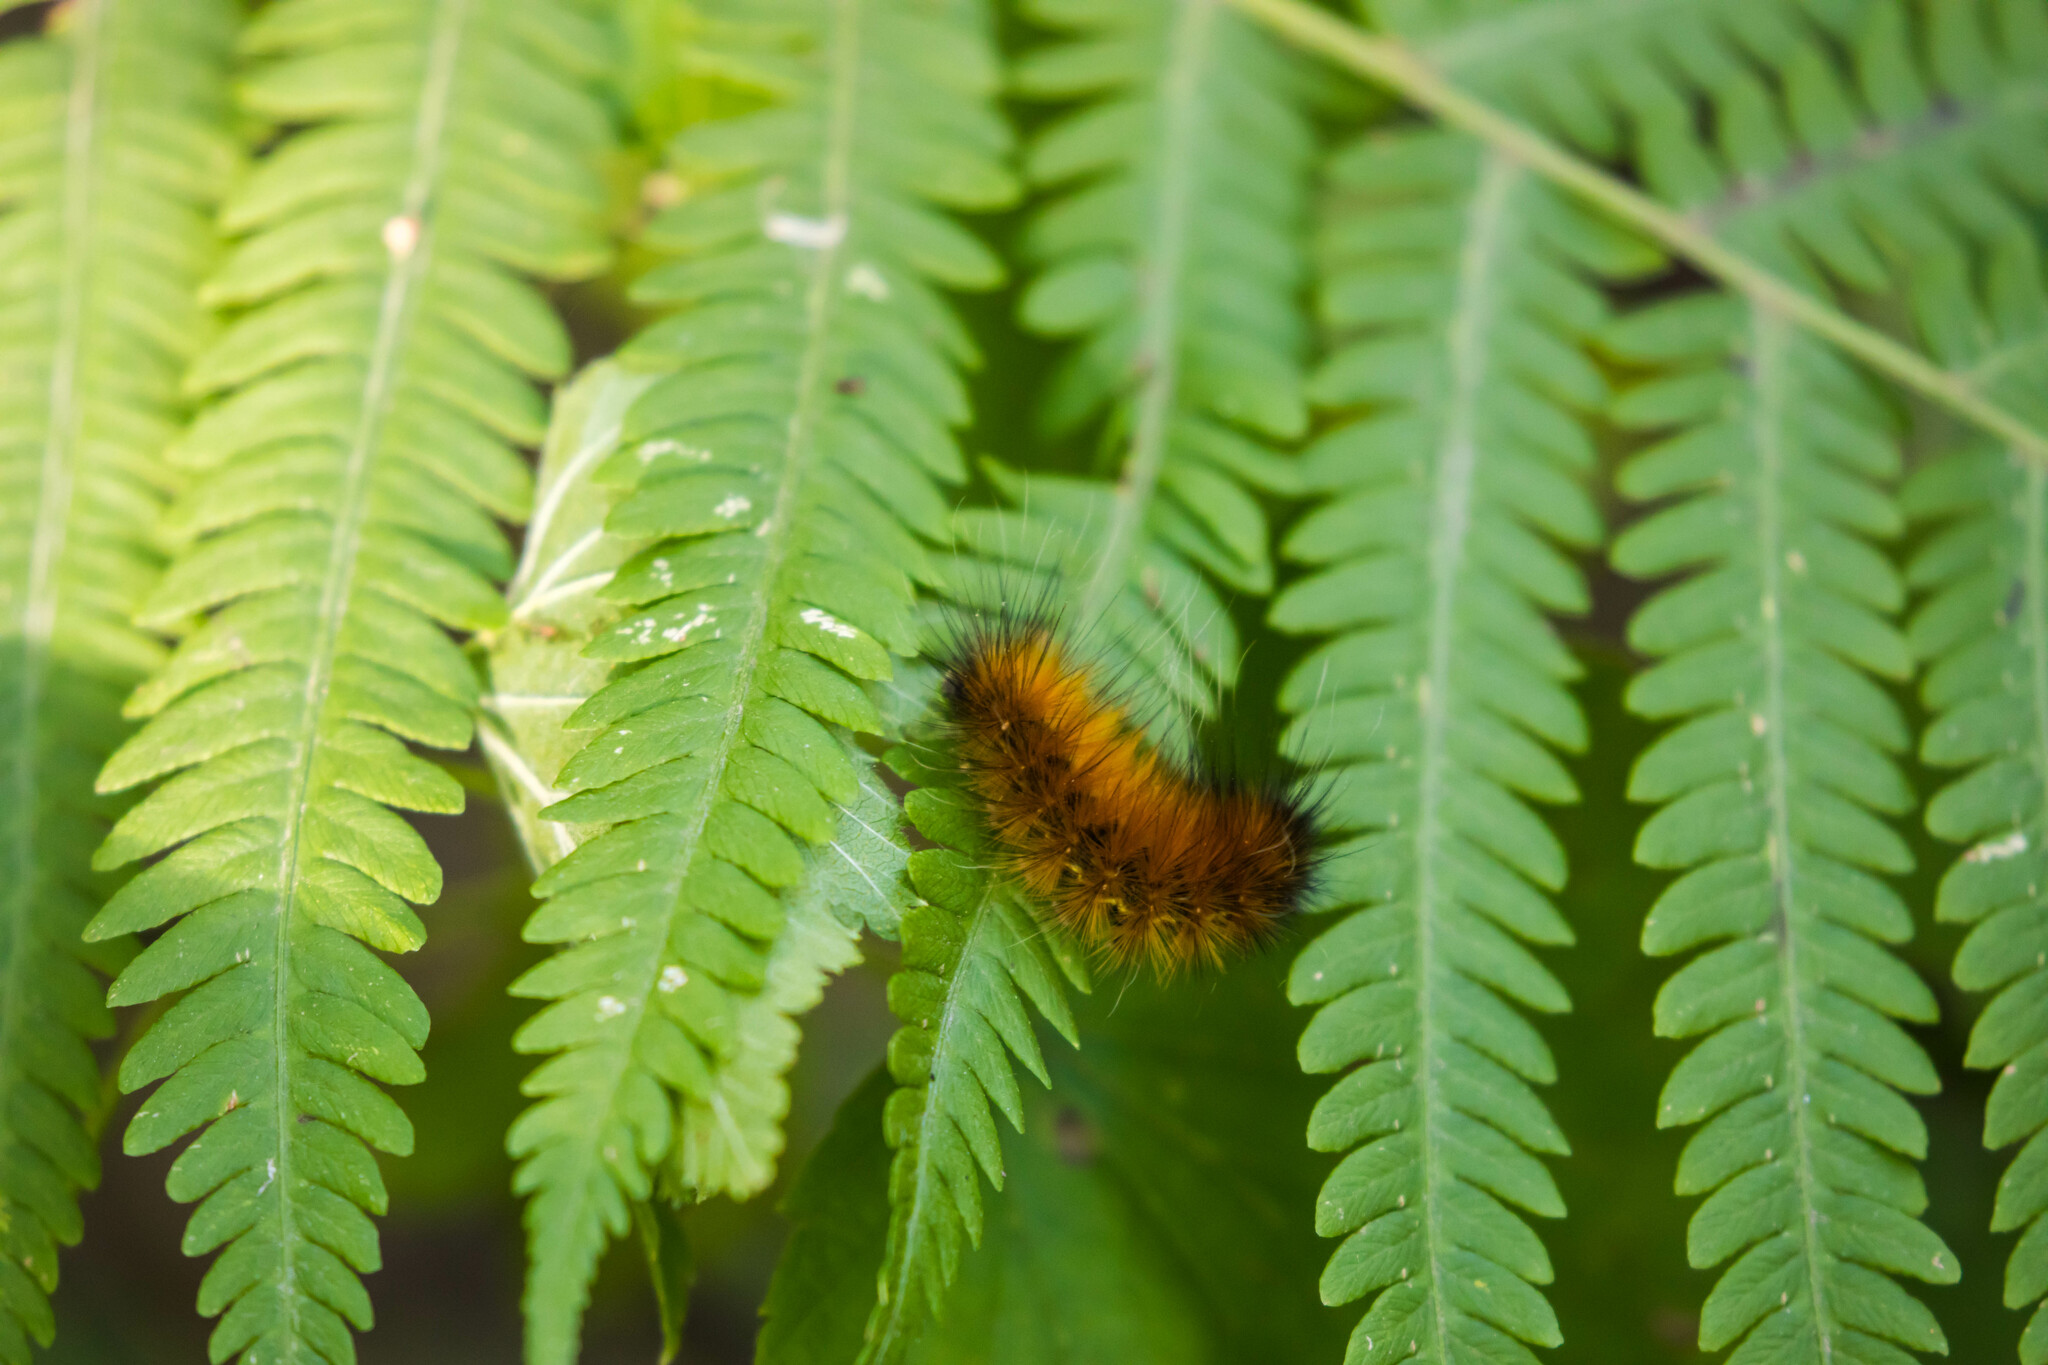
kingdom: Animalia
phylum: Arthropoda
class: Insecta
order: Lepidoptera
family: Erebidae
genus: Spilosoma
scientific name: Spilosoma virginica
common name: Virginia tiger moth
